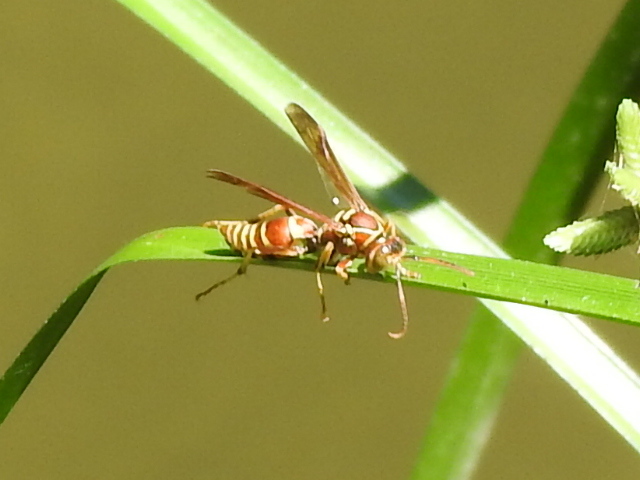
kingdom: Animalia
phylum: Arthropoda
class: Insecta
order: Hymenoptera
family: Eumenidae
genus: Polistes
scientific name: Polistes bellicosus
